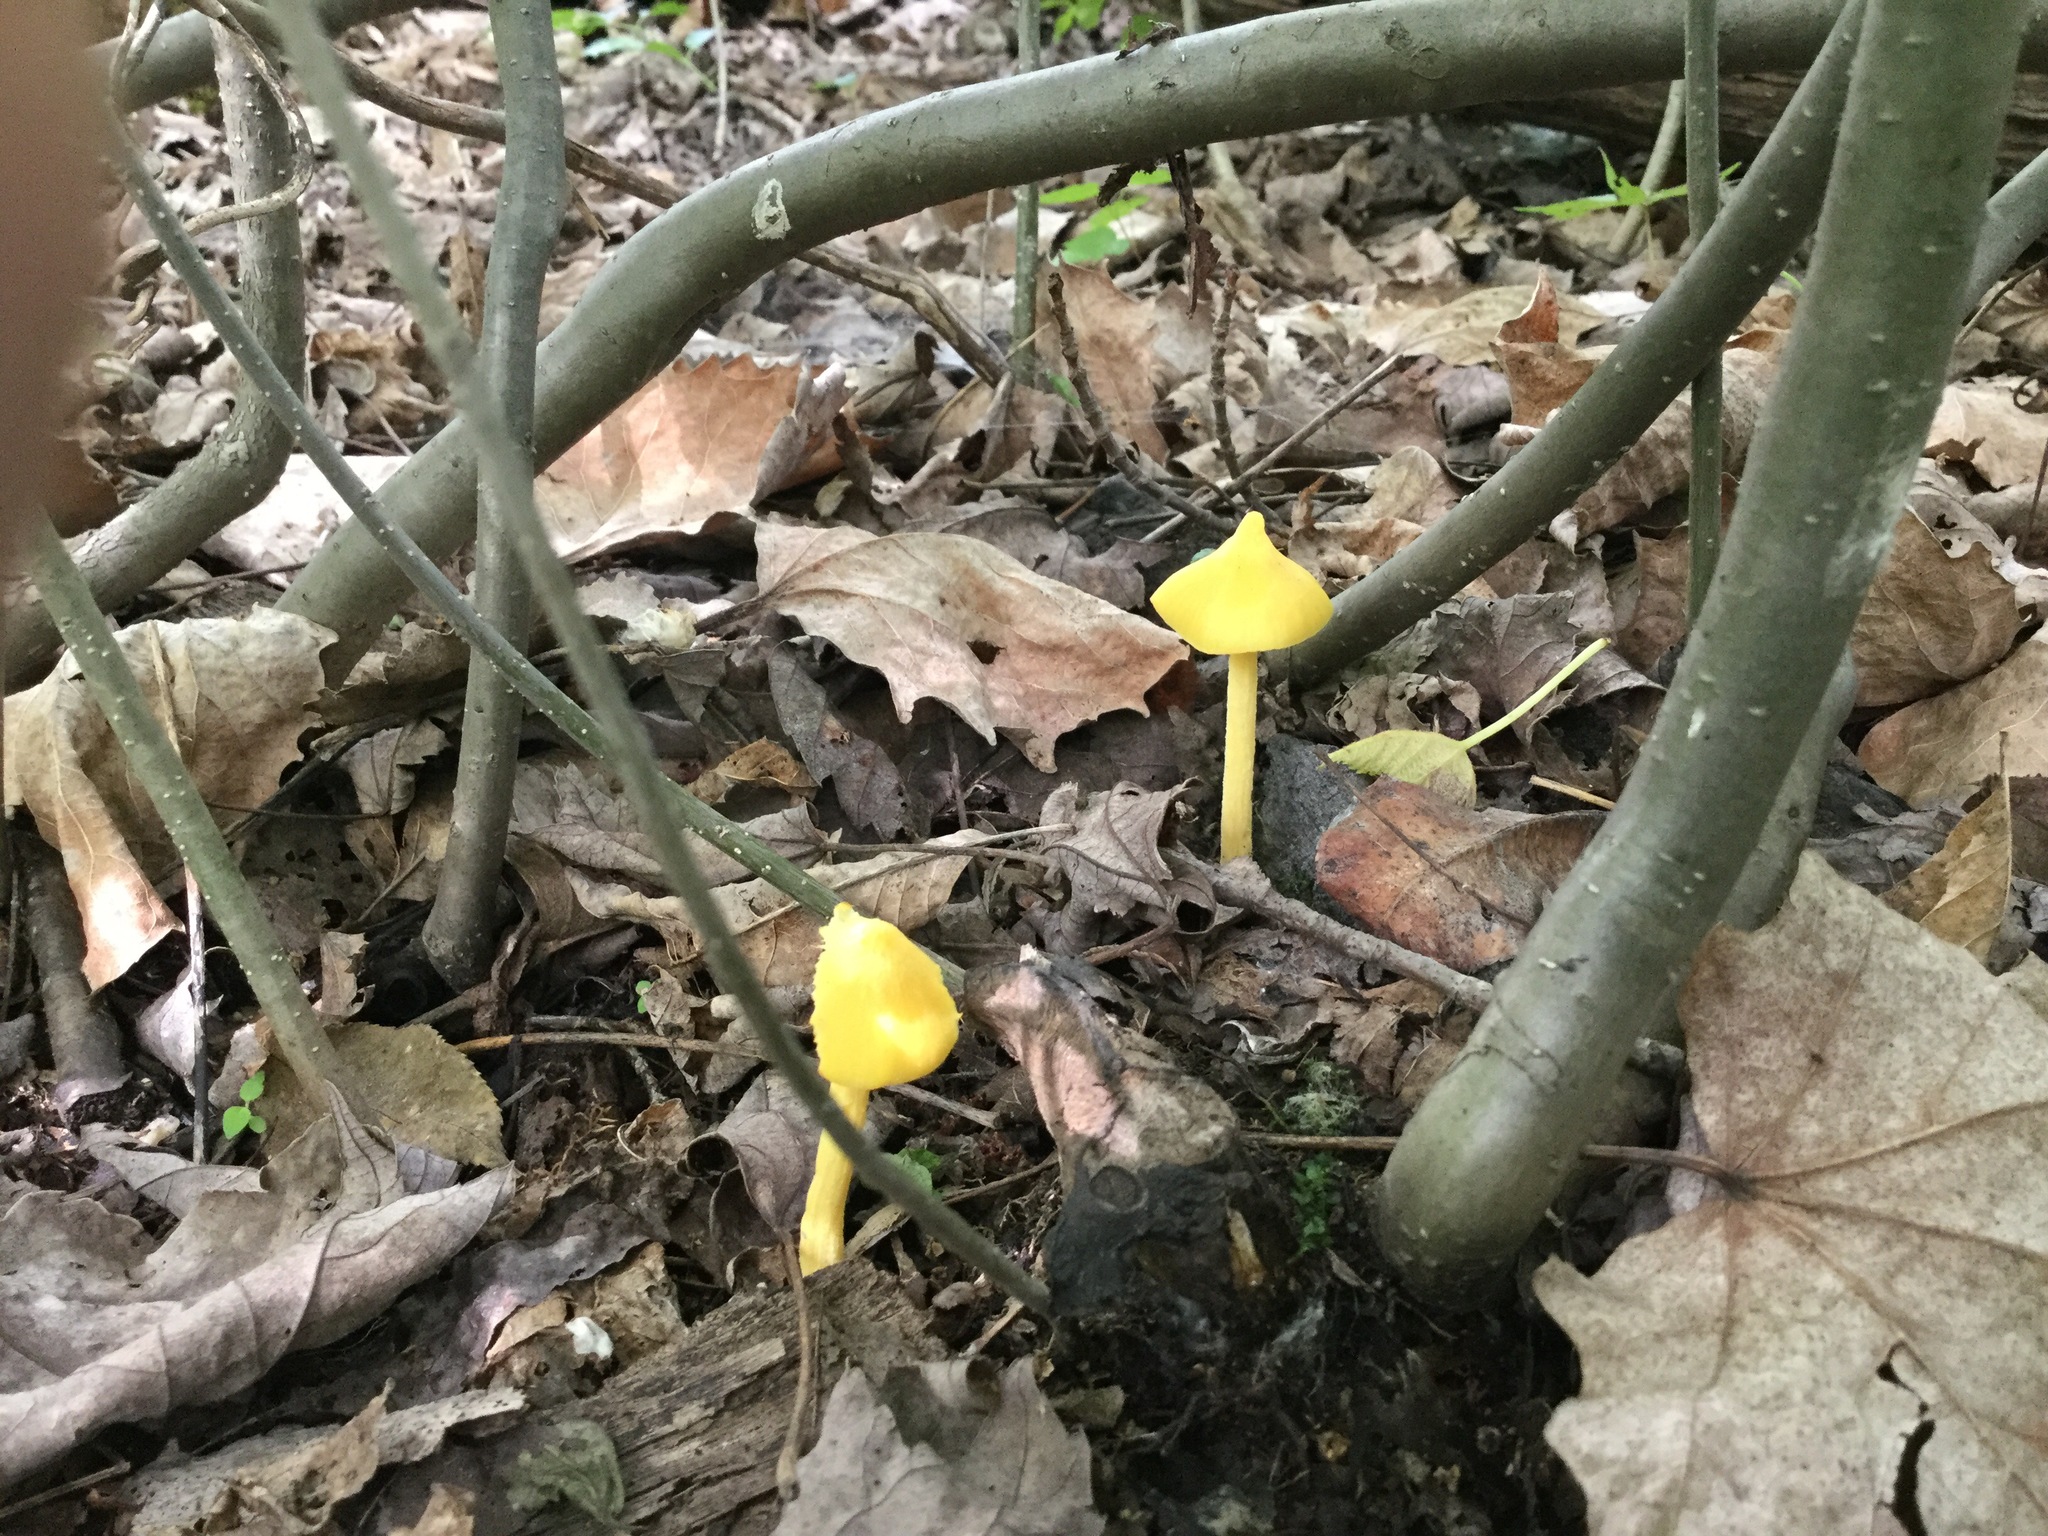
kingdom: Fungi
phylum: Basidiomycota
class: Agaricomycetes
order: Agaricales
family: Entolomataceae
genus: Entoloma
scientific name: Entoloma murrayi
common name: Yellow unicorn entoloma
